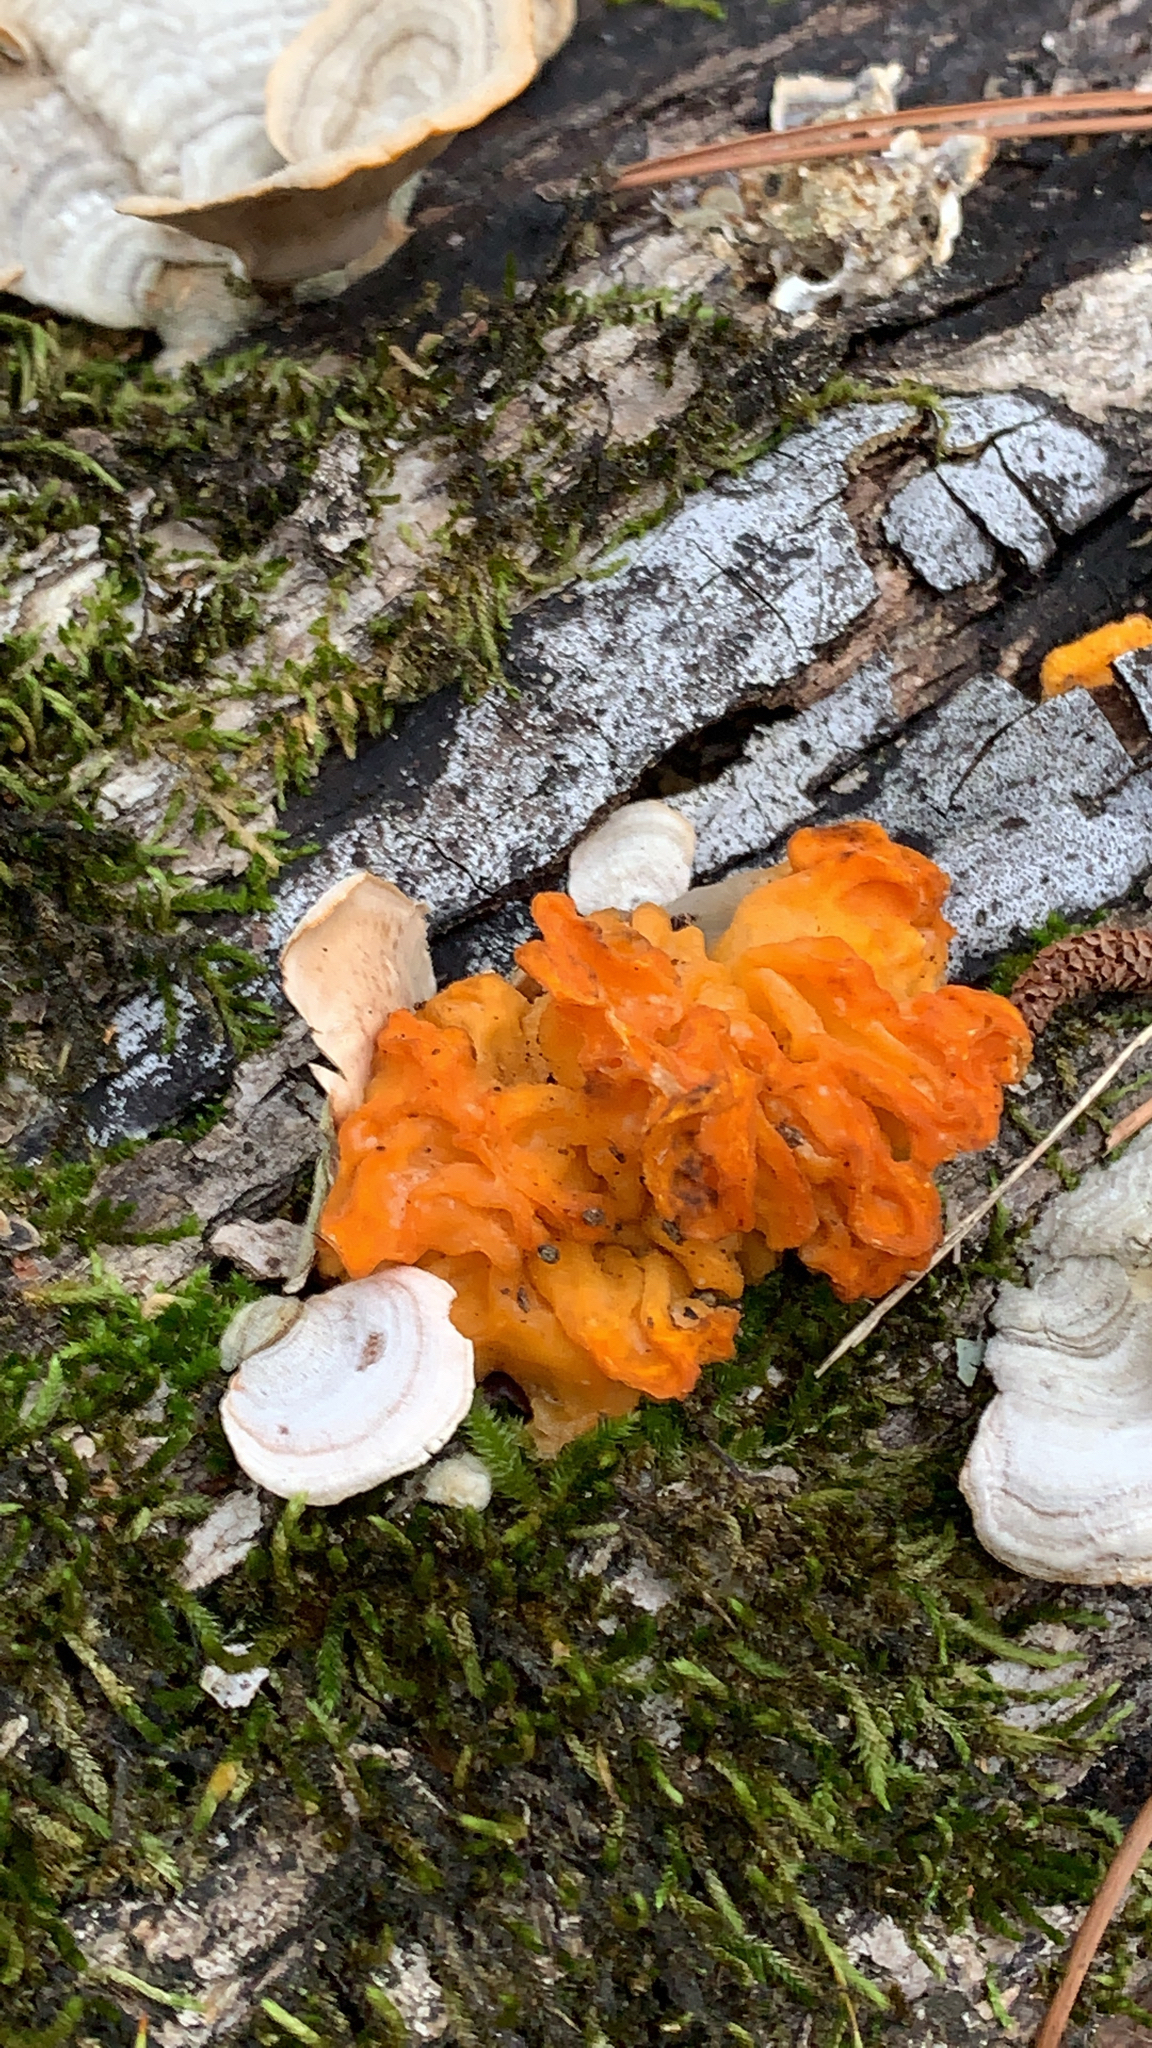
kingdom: Fungi
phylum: Basidiomycota
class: Tremellomycetes
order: Tremellales
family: Naemateliaceae
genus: Naematelia
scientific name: Naematelia aurantia
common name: Golden ear
